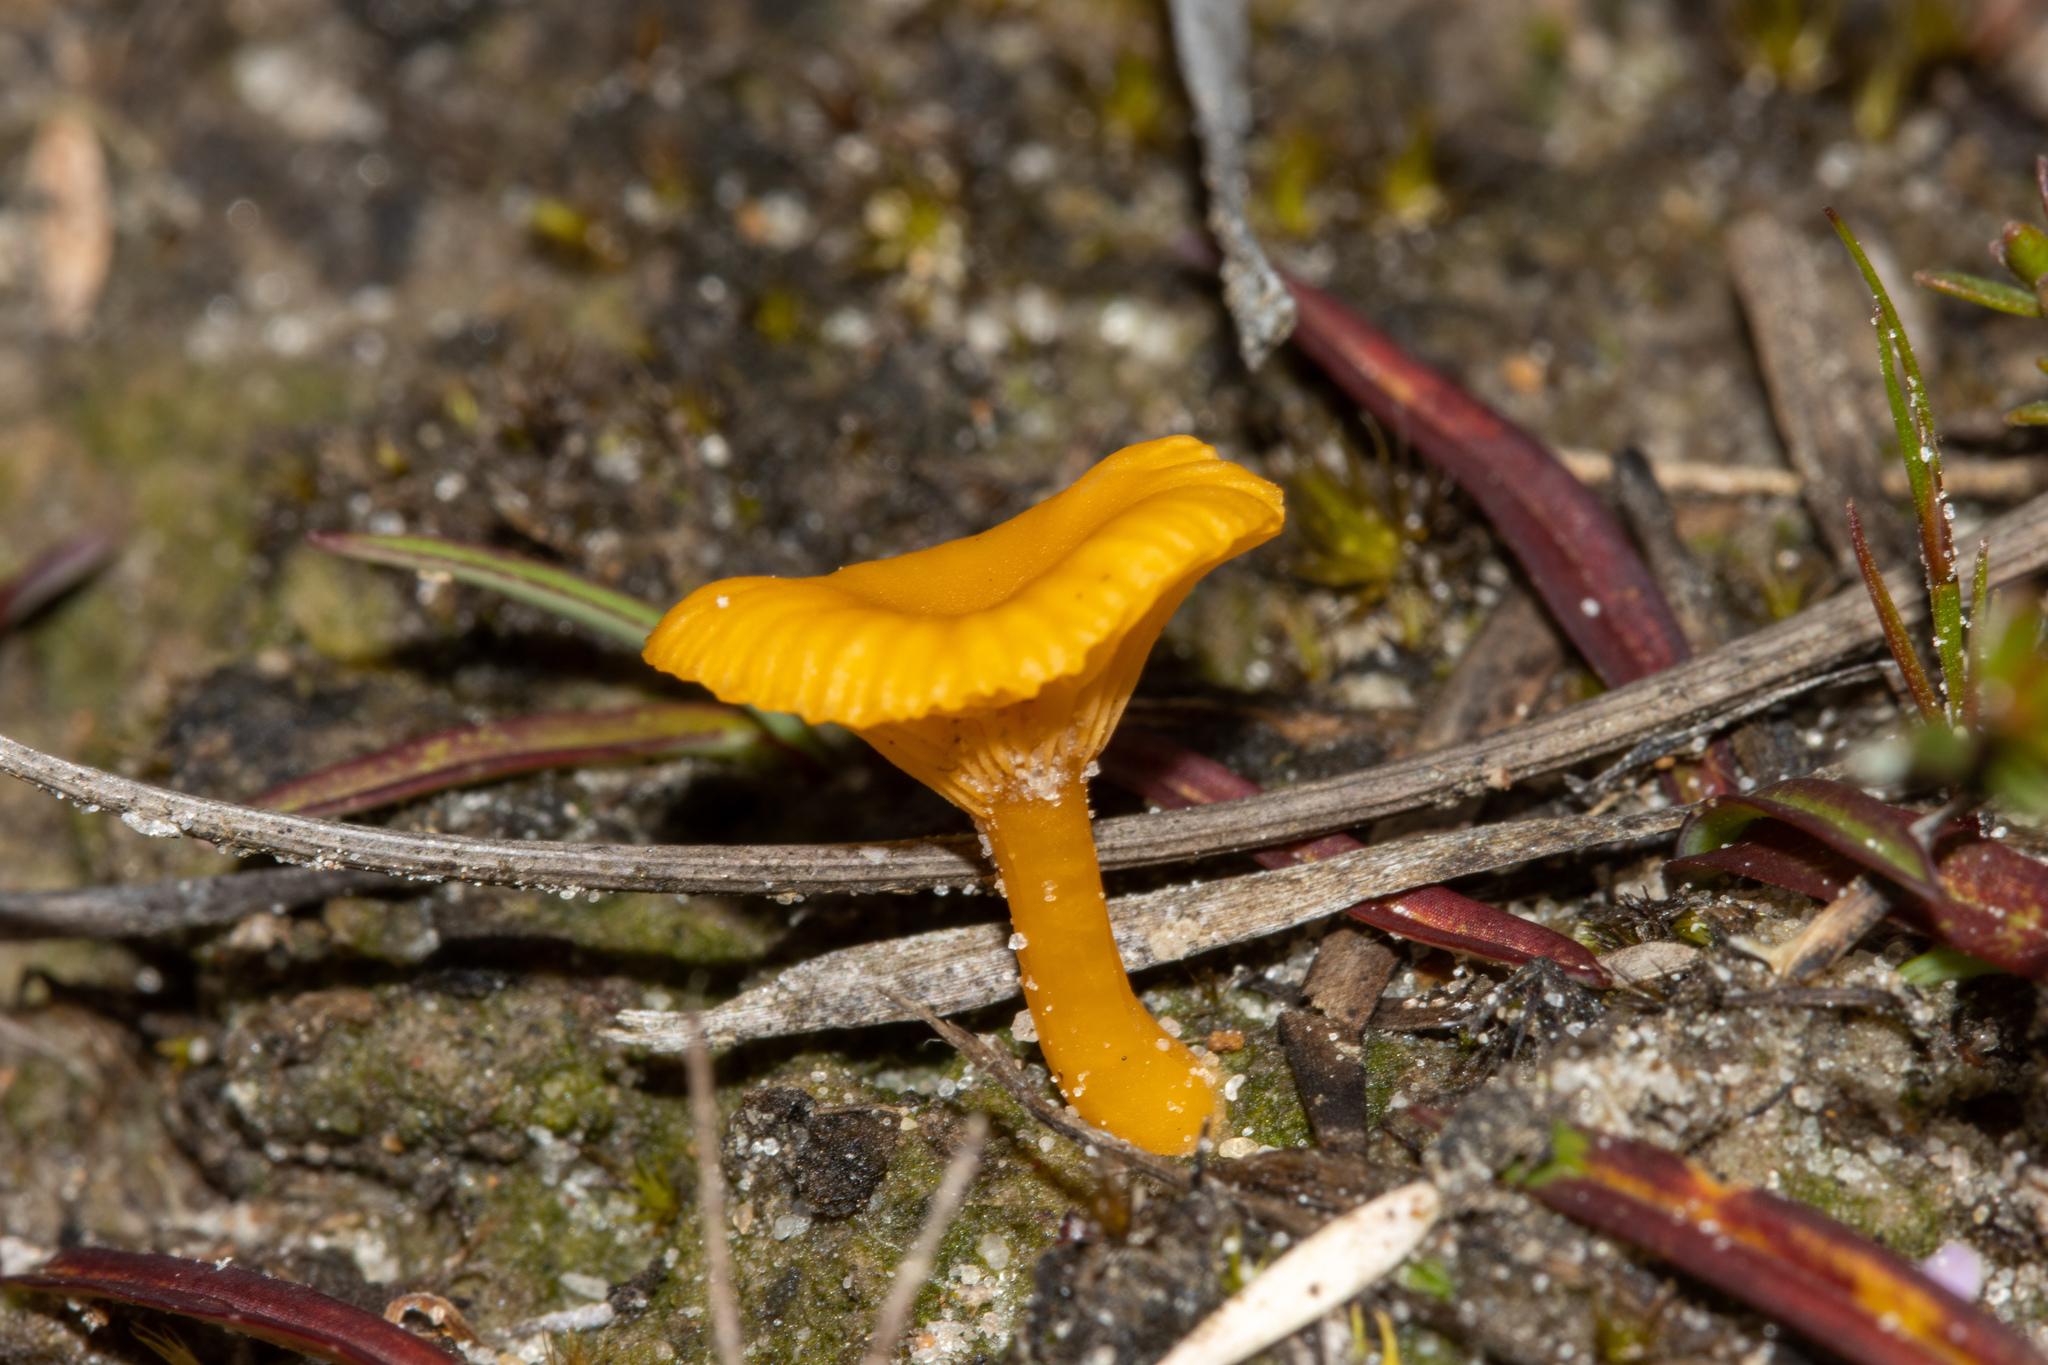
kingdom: Fungi
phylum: Basidiomycota
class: Agaricomycetes
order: Agaricales
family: Hygrophoraceae
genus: Lichenomphalia
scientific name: Lichenomphalia chromacea
